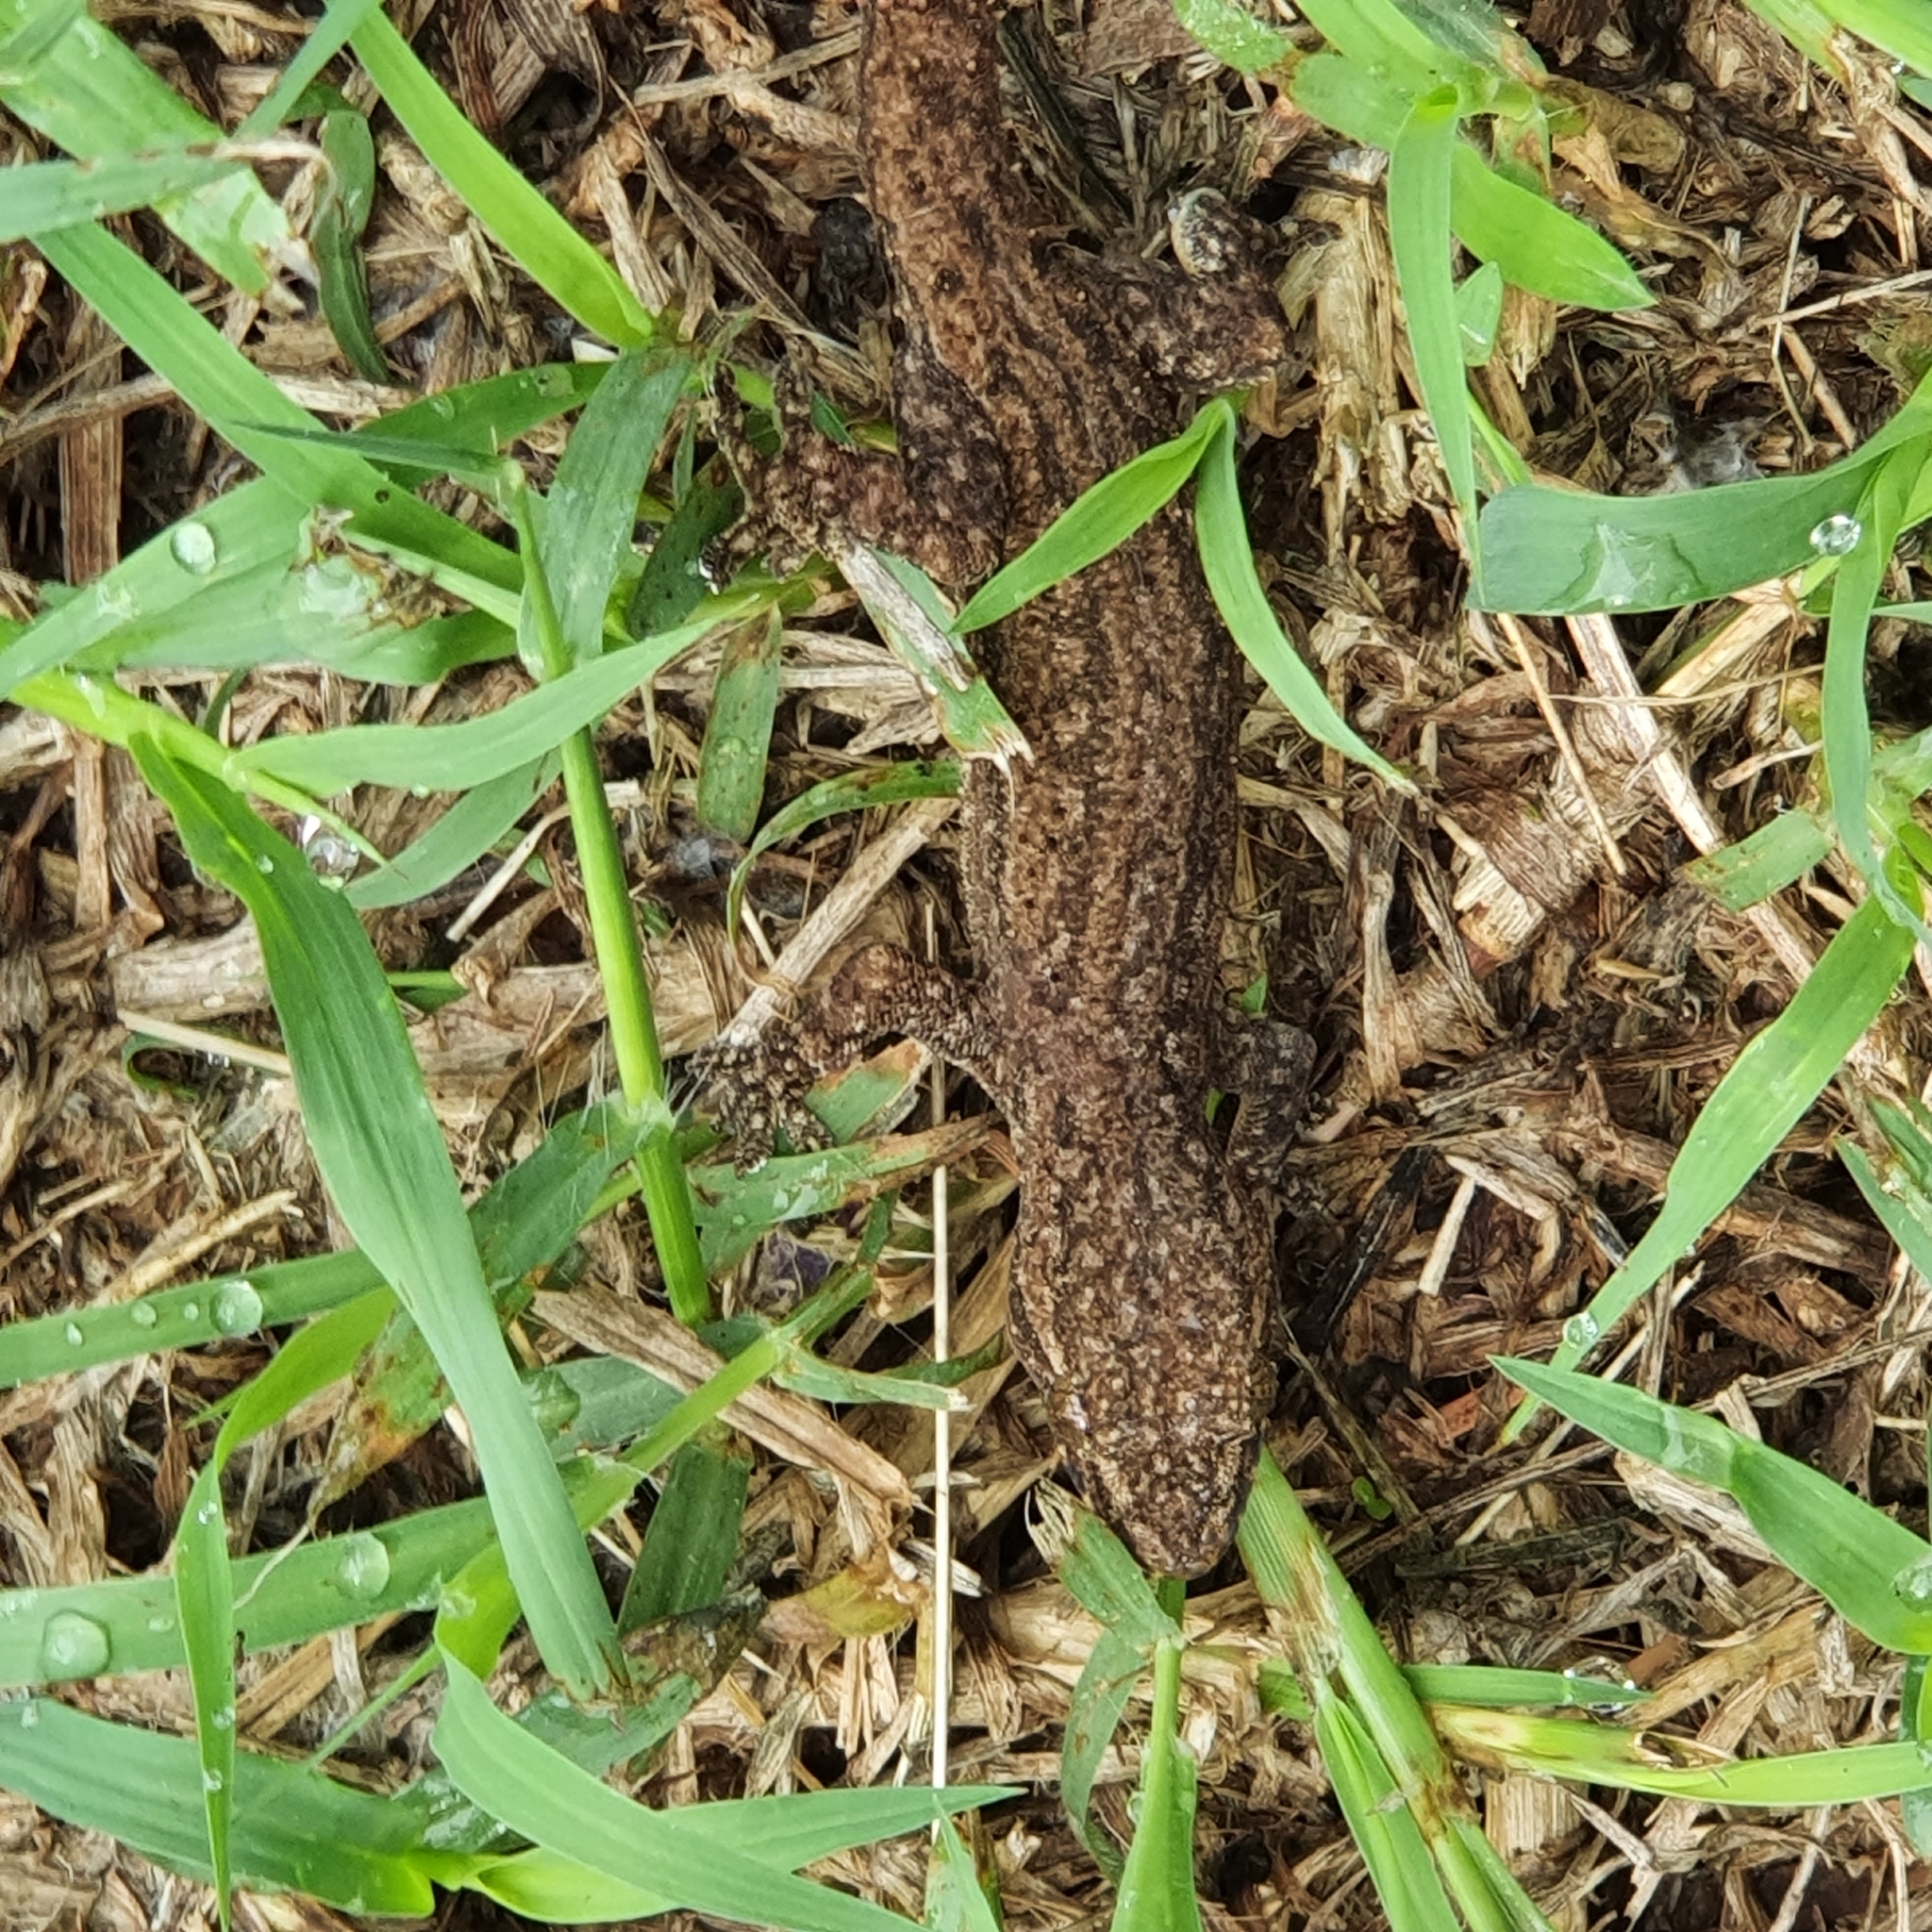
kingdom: Animalia
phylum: Chordata
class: Squamata
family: Gekkonidae
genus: Hemidactylus
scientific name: Hemidactylus frenatus
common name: Common house gecko
